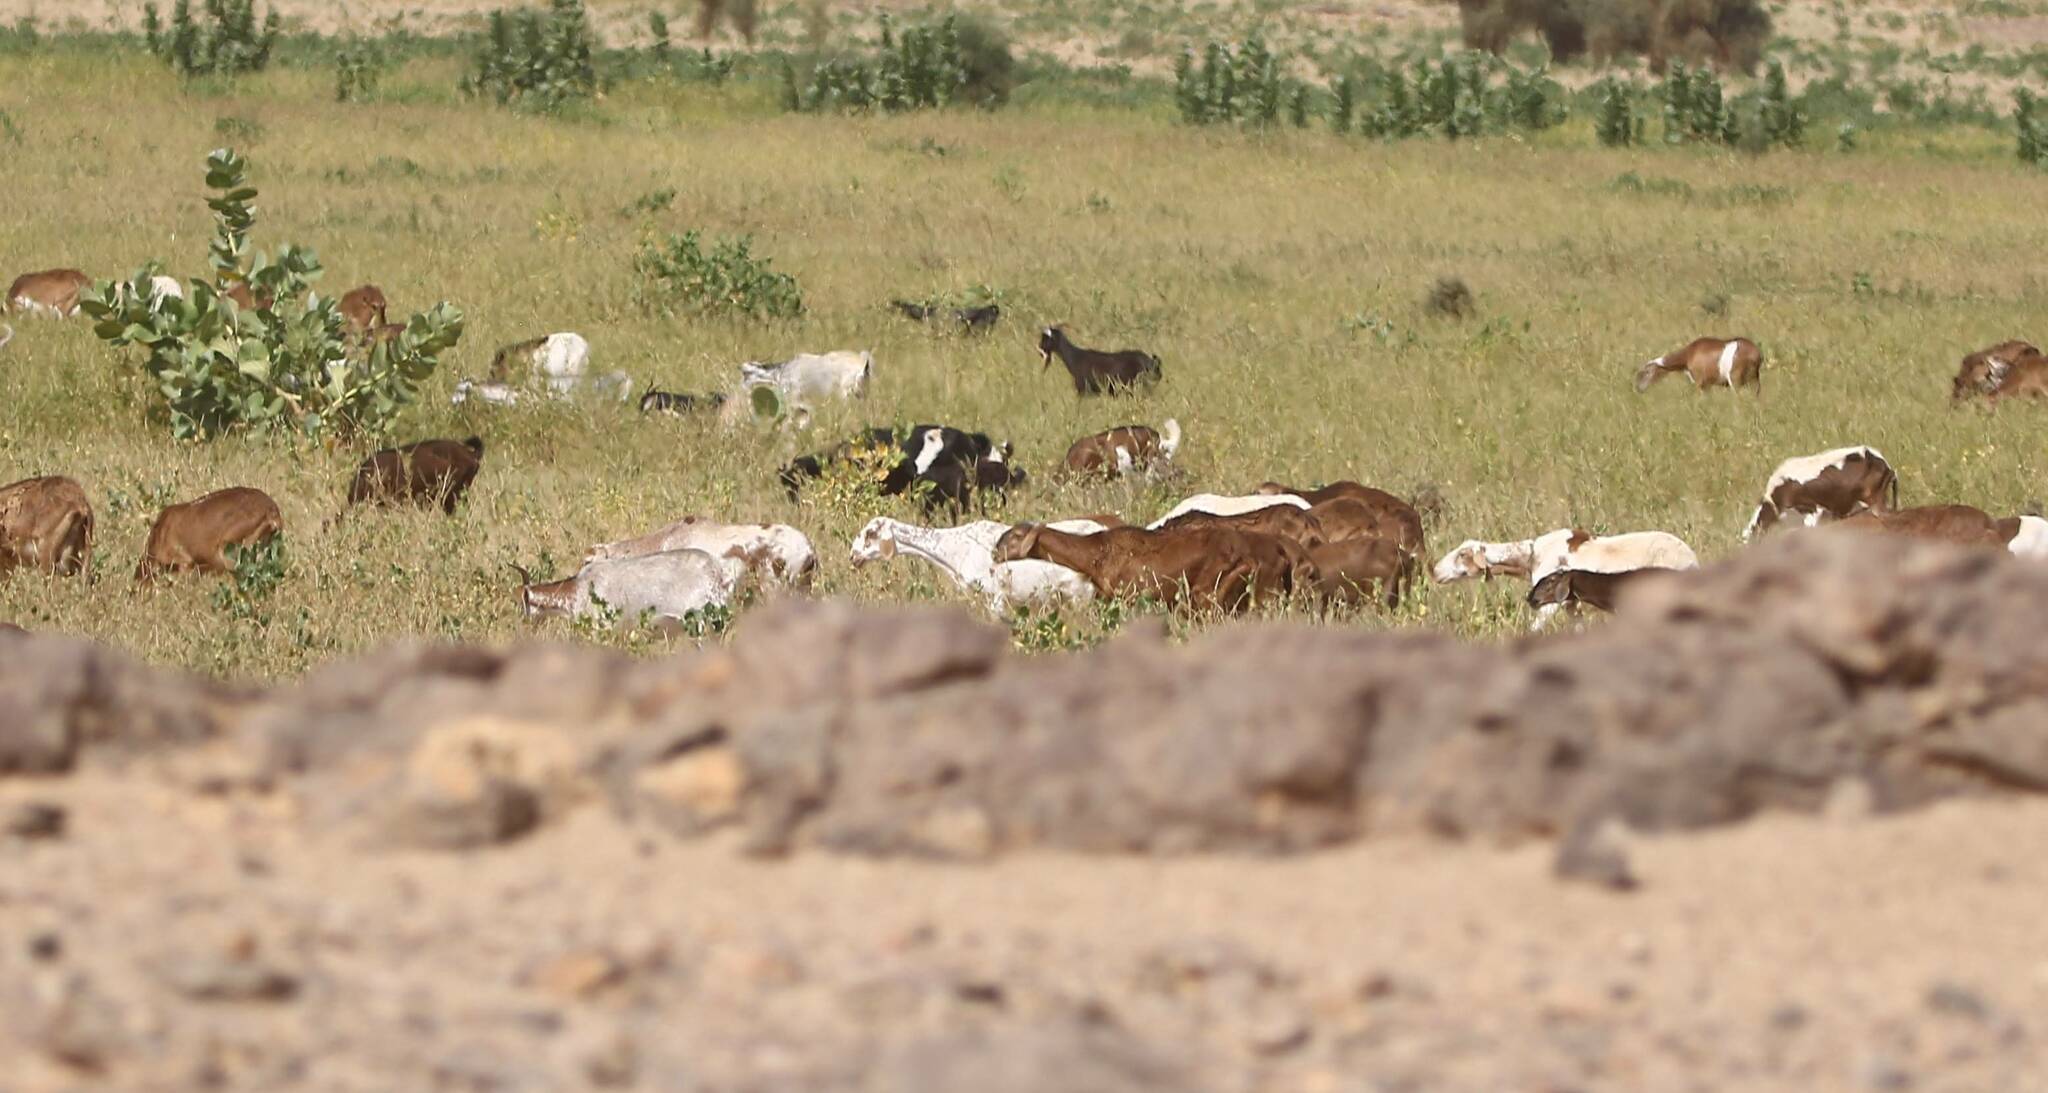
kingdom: Animalia
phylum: Chordata
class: Mammalia
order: Artiodactyla
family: Bovidae
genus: Capra
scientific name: Capra hircus
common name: Domestic goat
